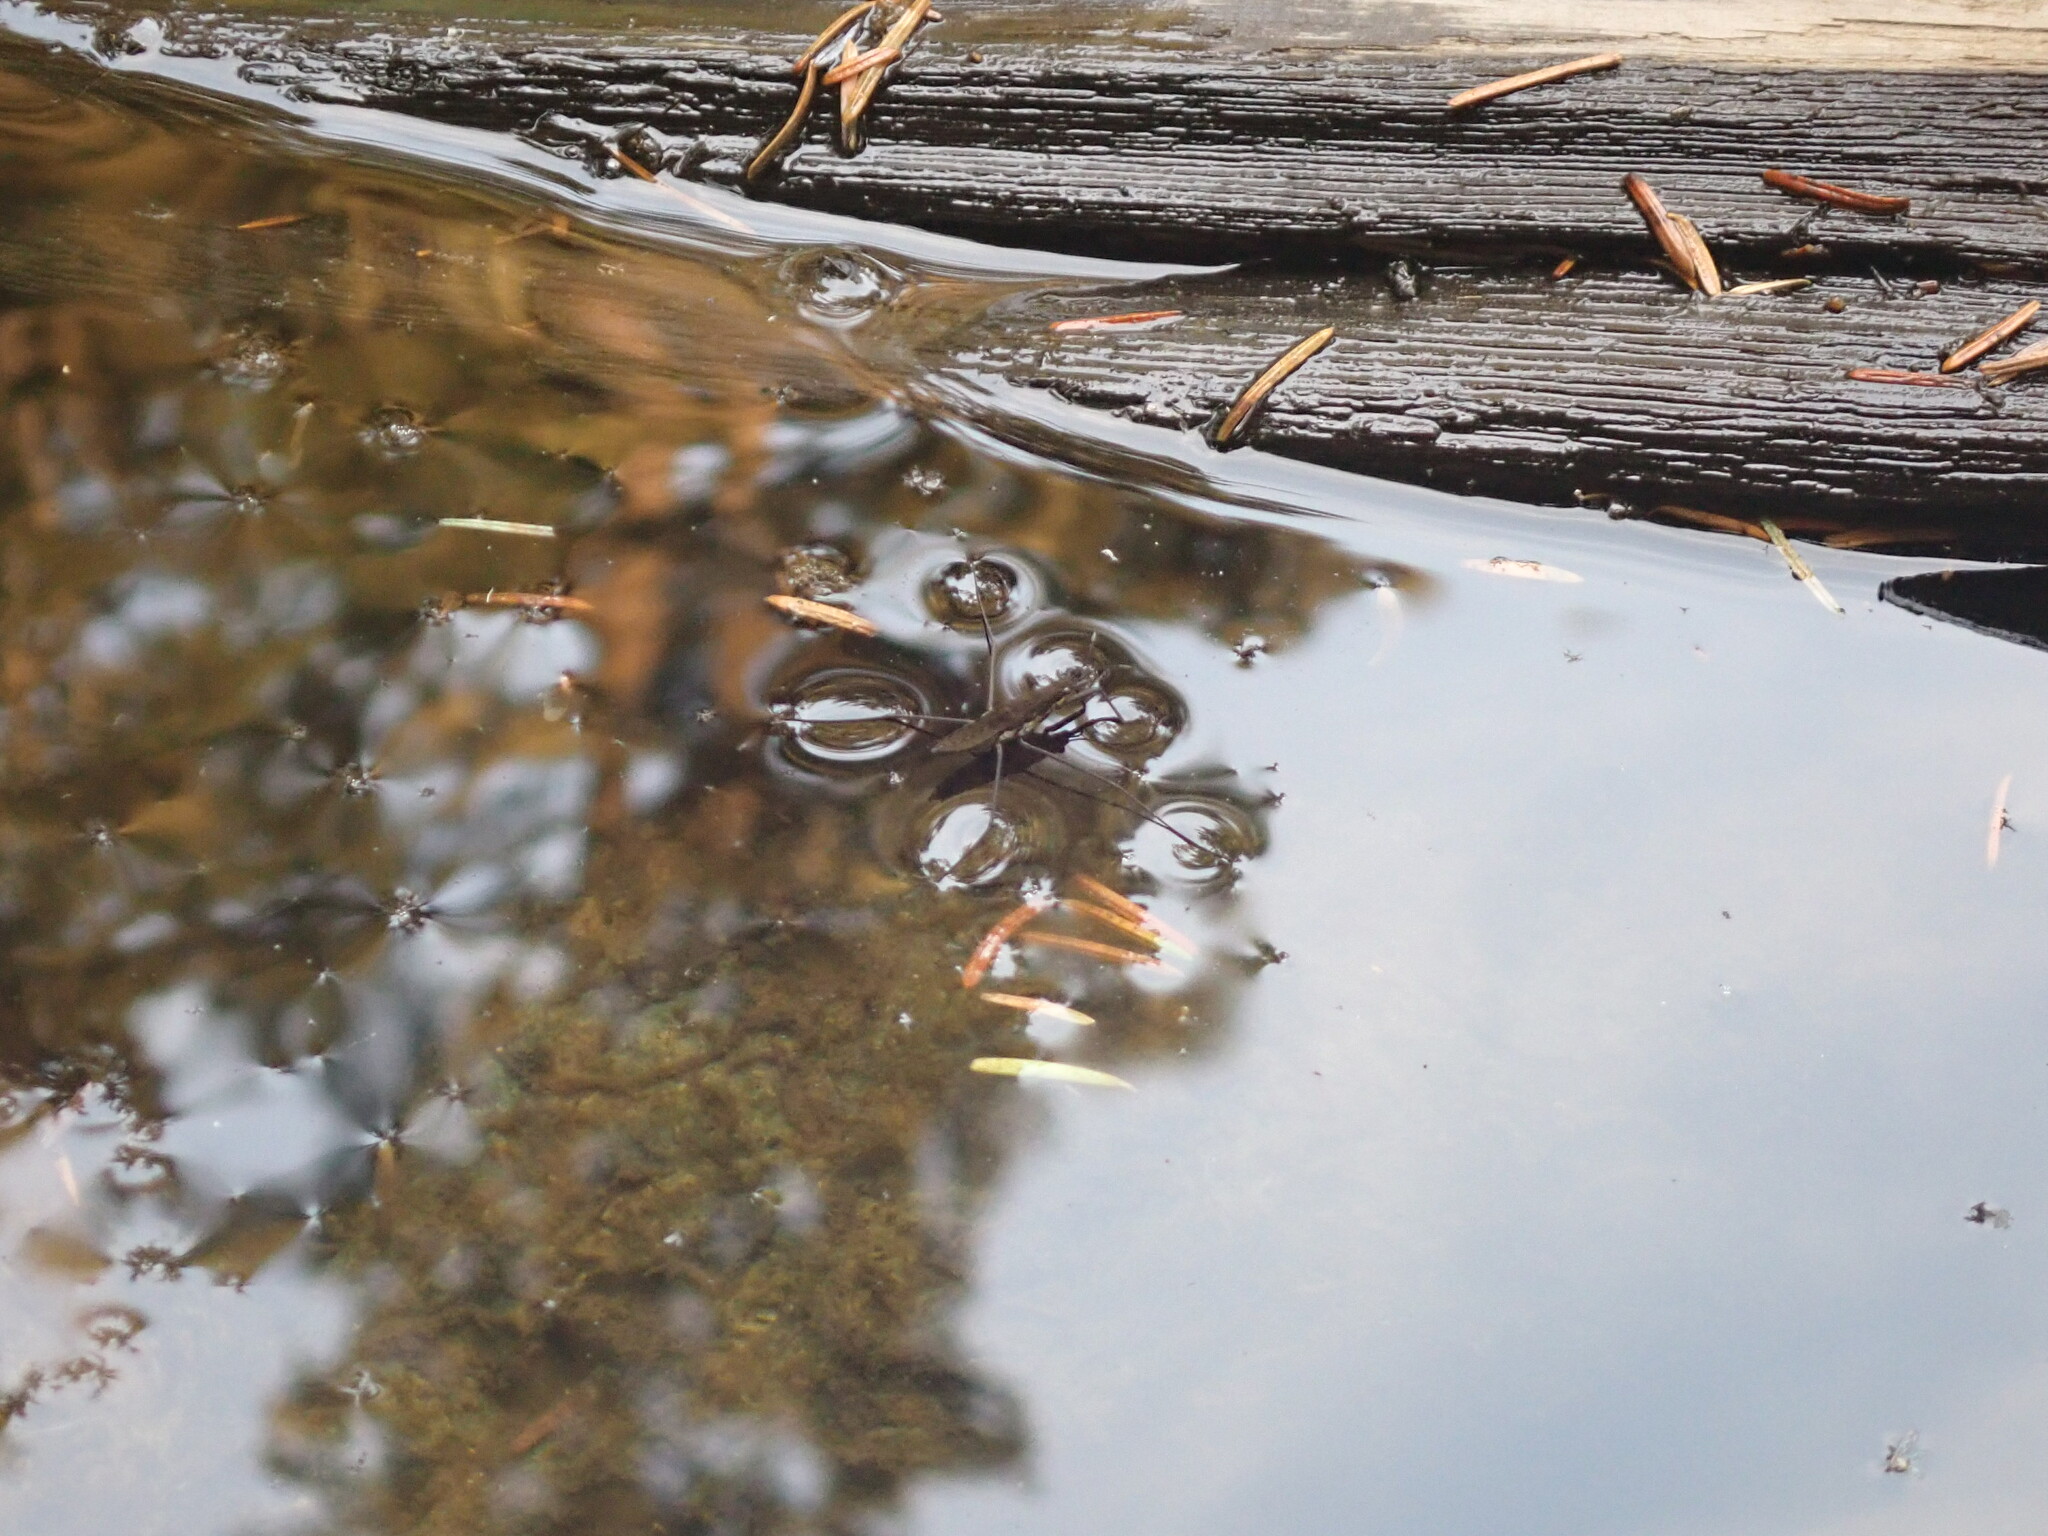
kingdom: Animalia
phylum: Arthropoda
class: Insecta
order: Hemiptera
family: Gerridae
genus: Aquarius
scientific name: Aquarius remigis
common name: Common water strider
